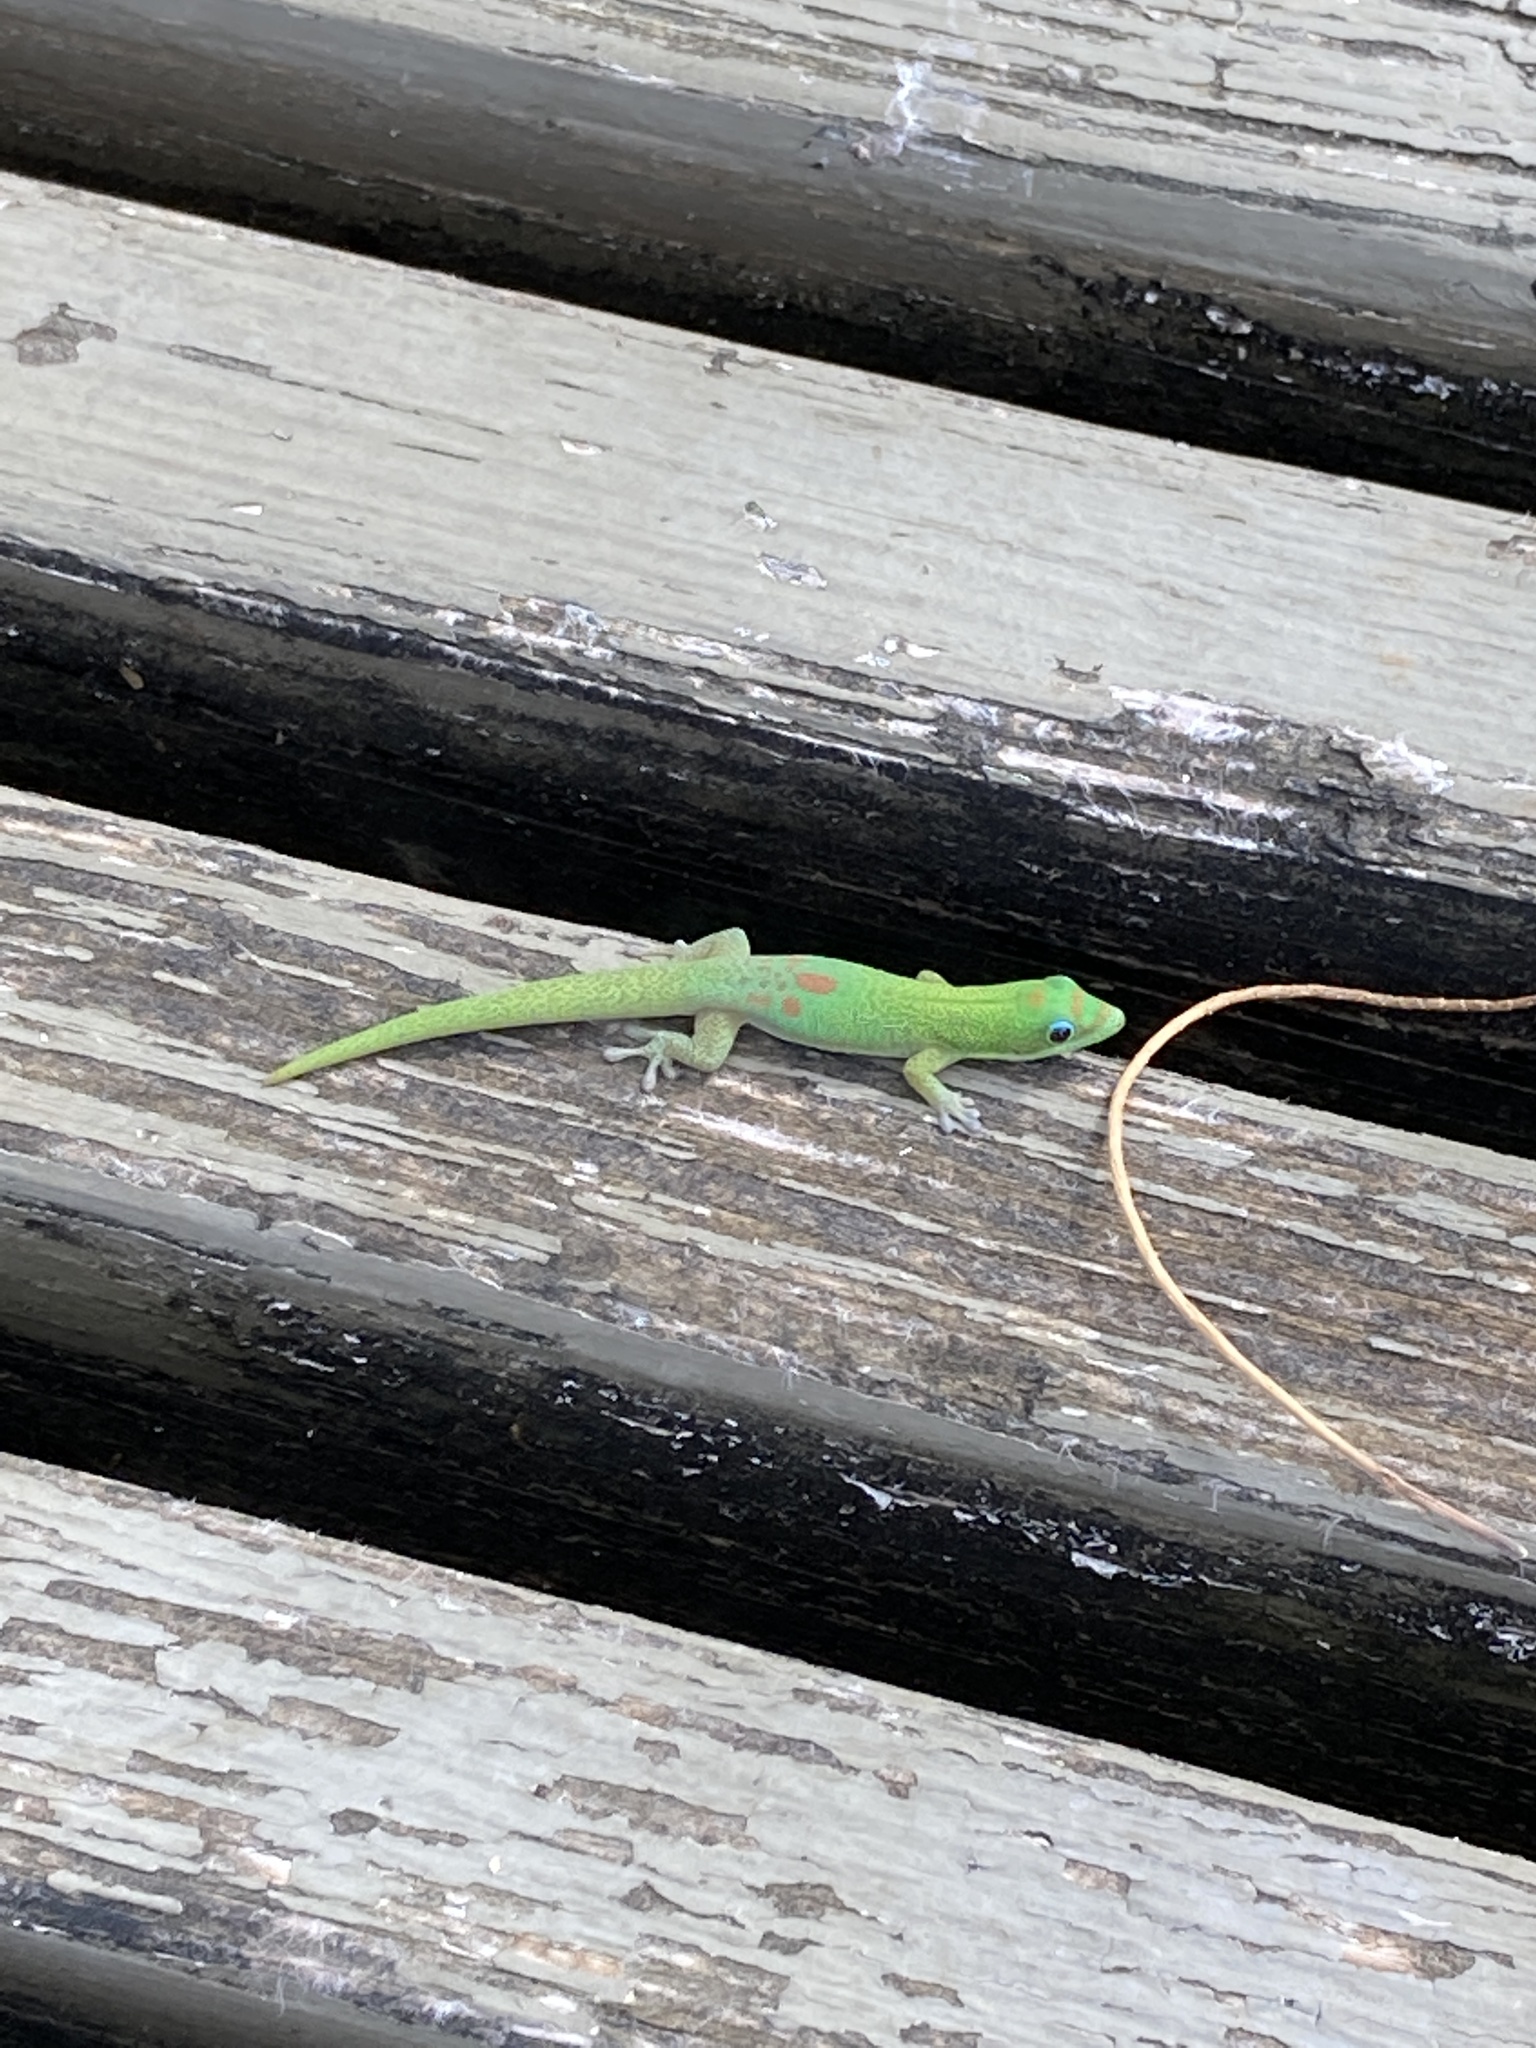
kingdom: Animalia
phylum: Chordata
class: Squamata
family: Gekkonidae
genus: Phelsuma
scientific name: Phelsuma laticauda
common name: Gold dust day gecko
